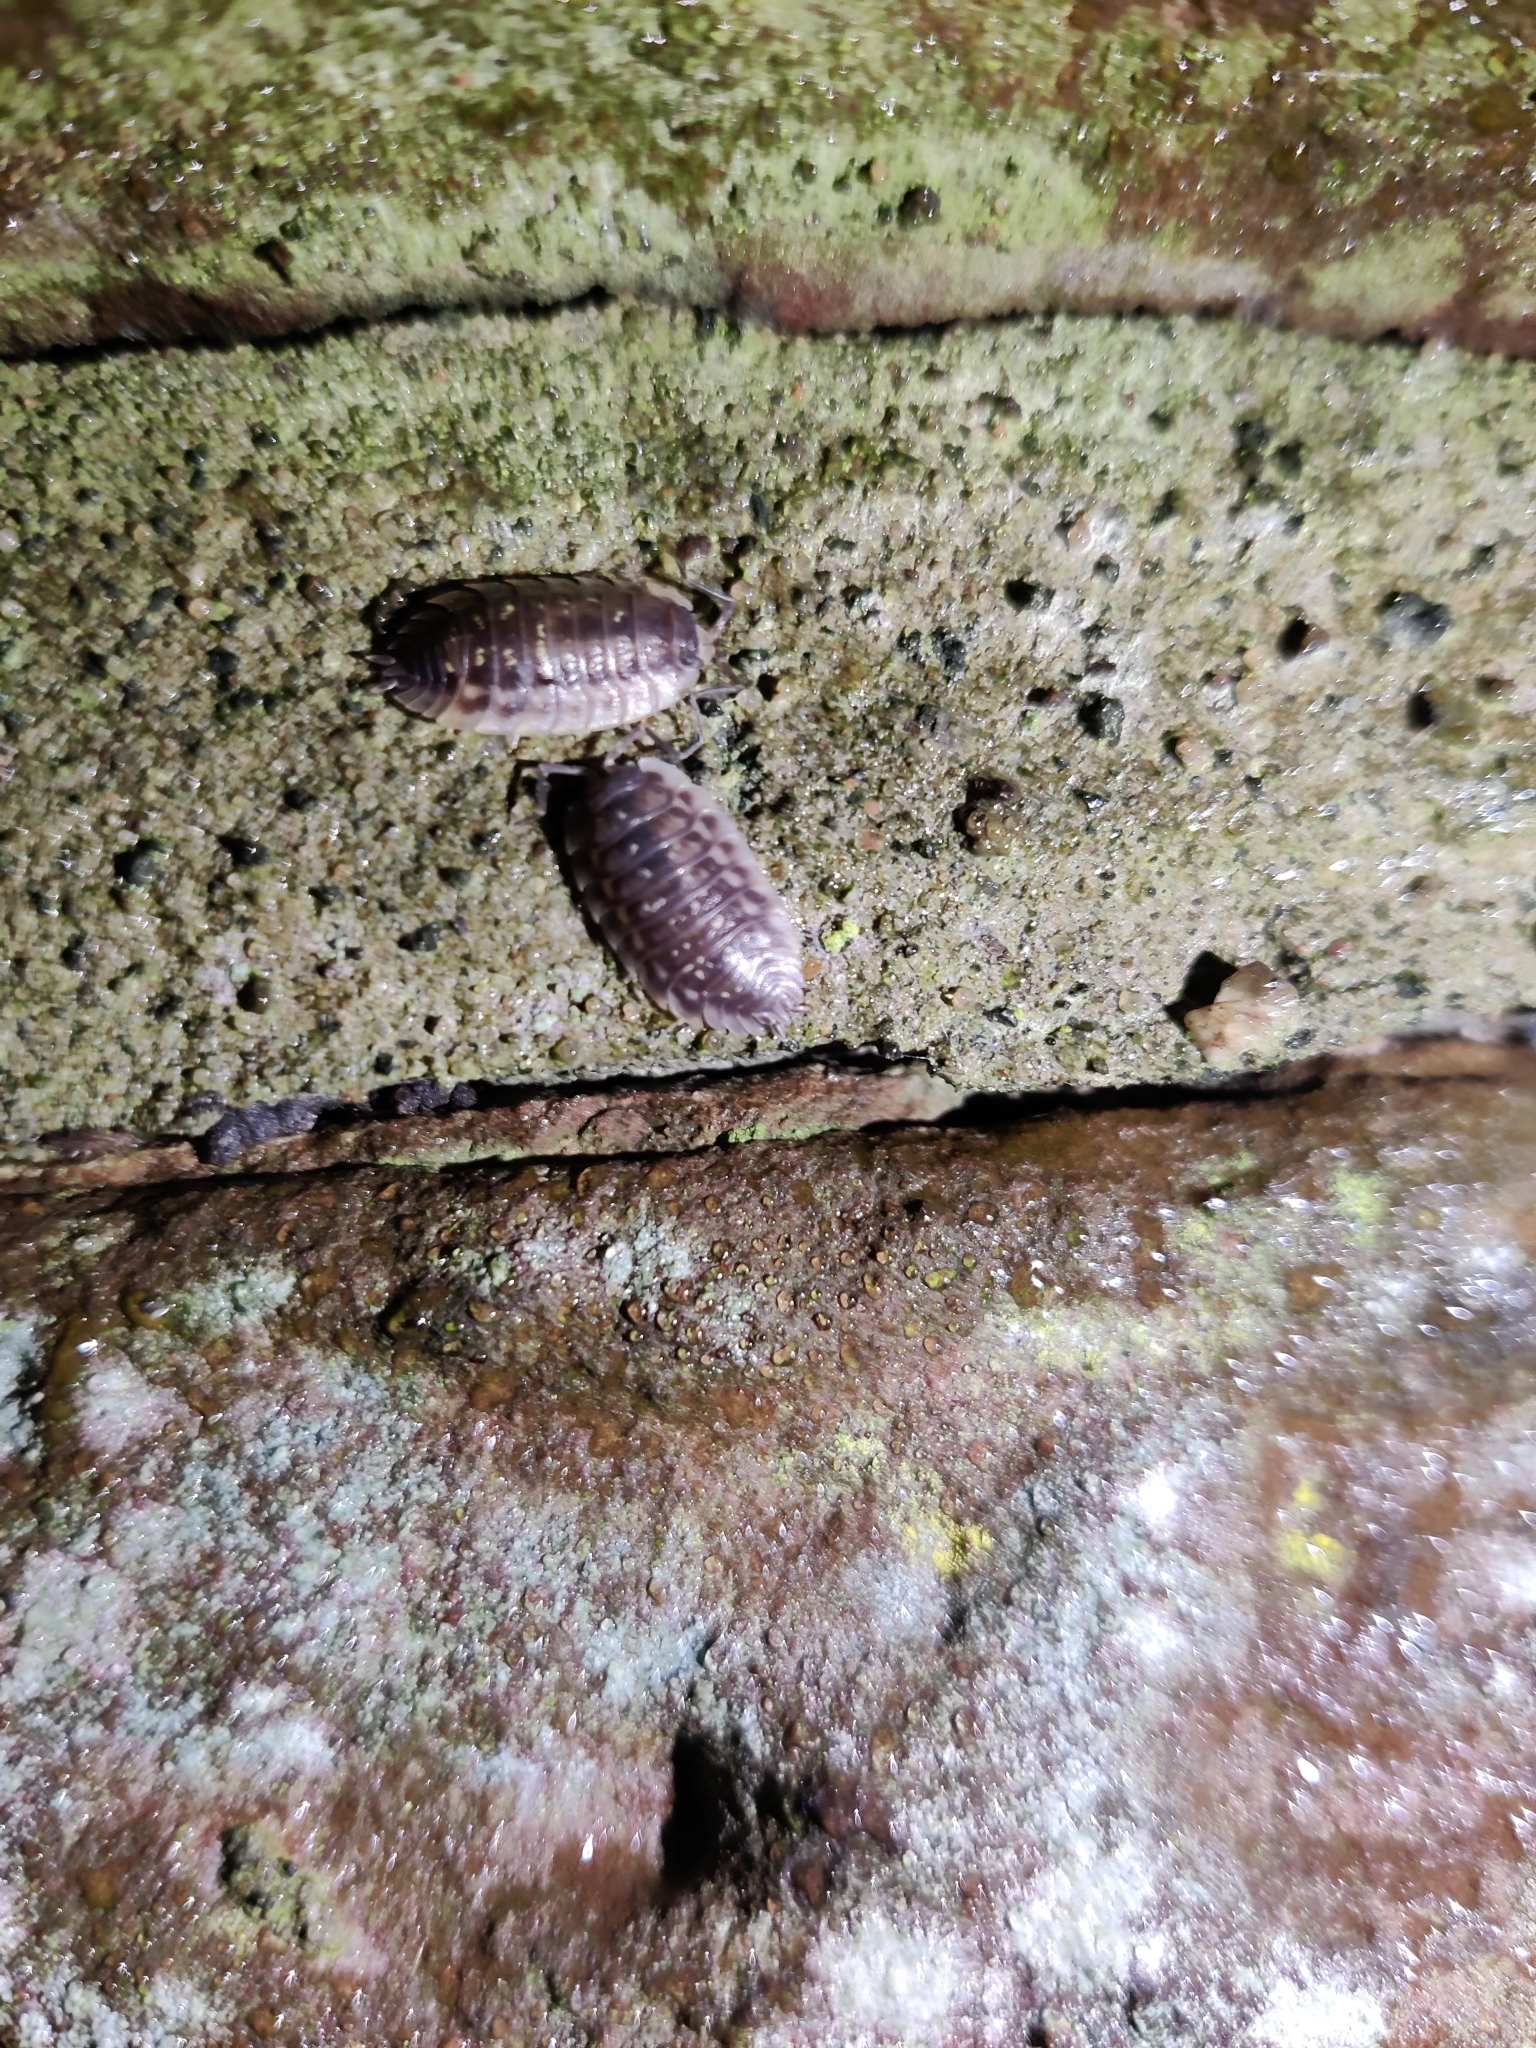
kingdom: Animalia
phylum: Arthropoda
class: Malacostraca
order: Isopoda
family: Oniscidae
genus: Oniscus
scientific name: Oniscus asellus
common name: Common shiny woodlouse
